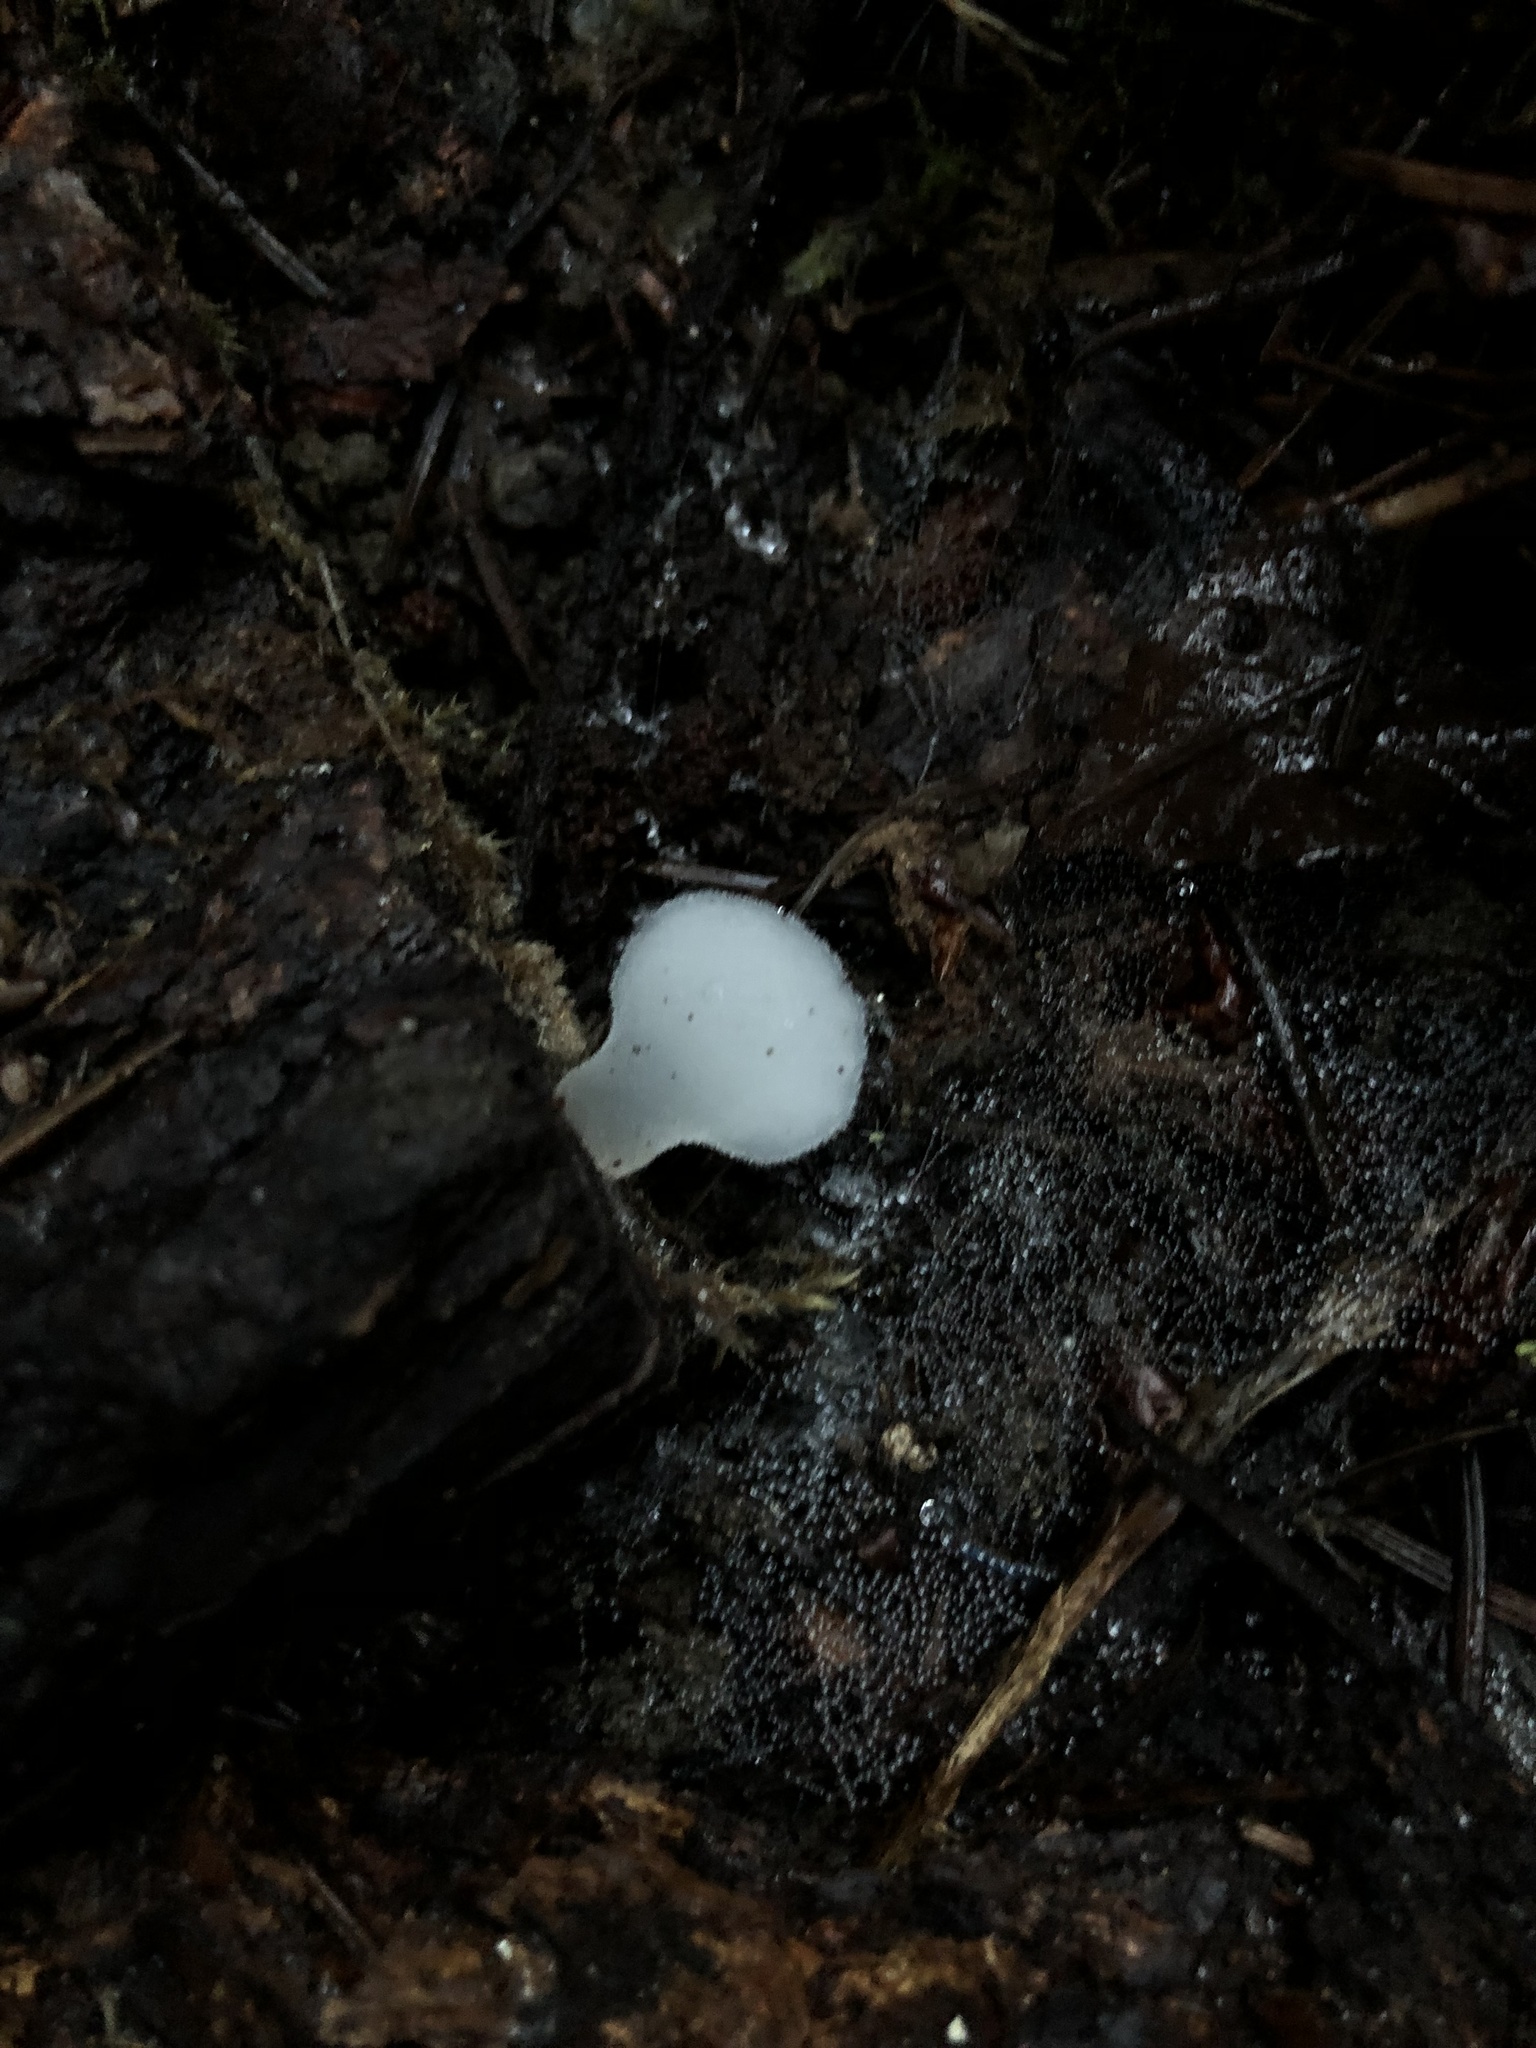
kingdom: Fungi
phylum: Basidiomycota
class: Agaricomycetes
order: Auriculariales
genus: Pseudohydnum
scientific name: Pseudohydnum gelatinosum
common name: Jelly tongue
